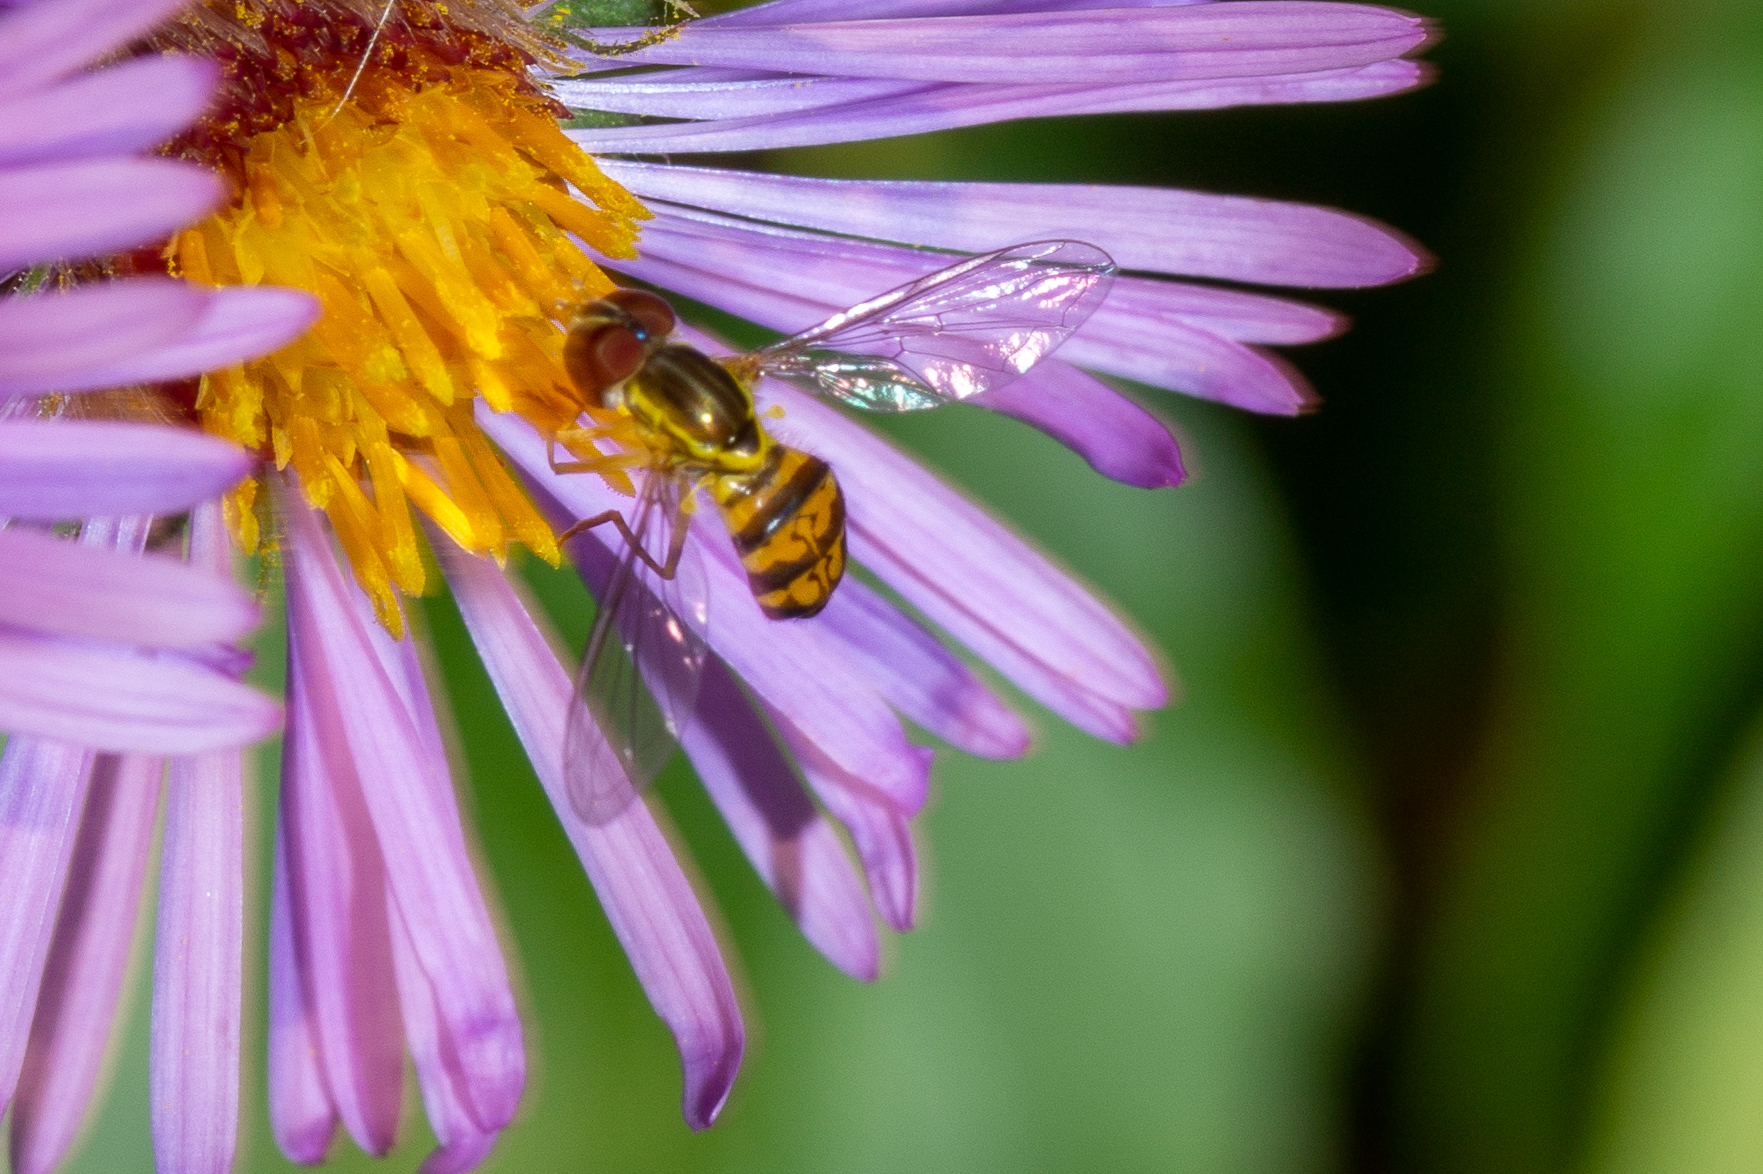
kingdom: Animalia
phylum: Arthropoda
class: Insecta
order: Diptera
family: Syrphidae
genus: Toxomerus
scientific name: Toxomerus geminatus
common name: Eastern calligrapher
